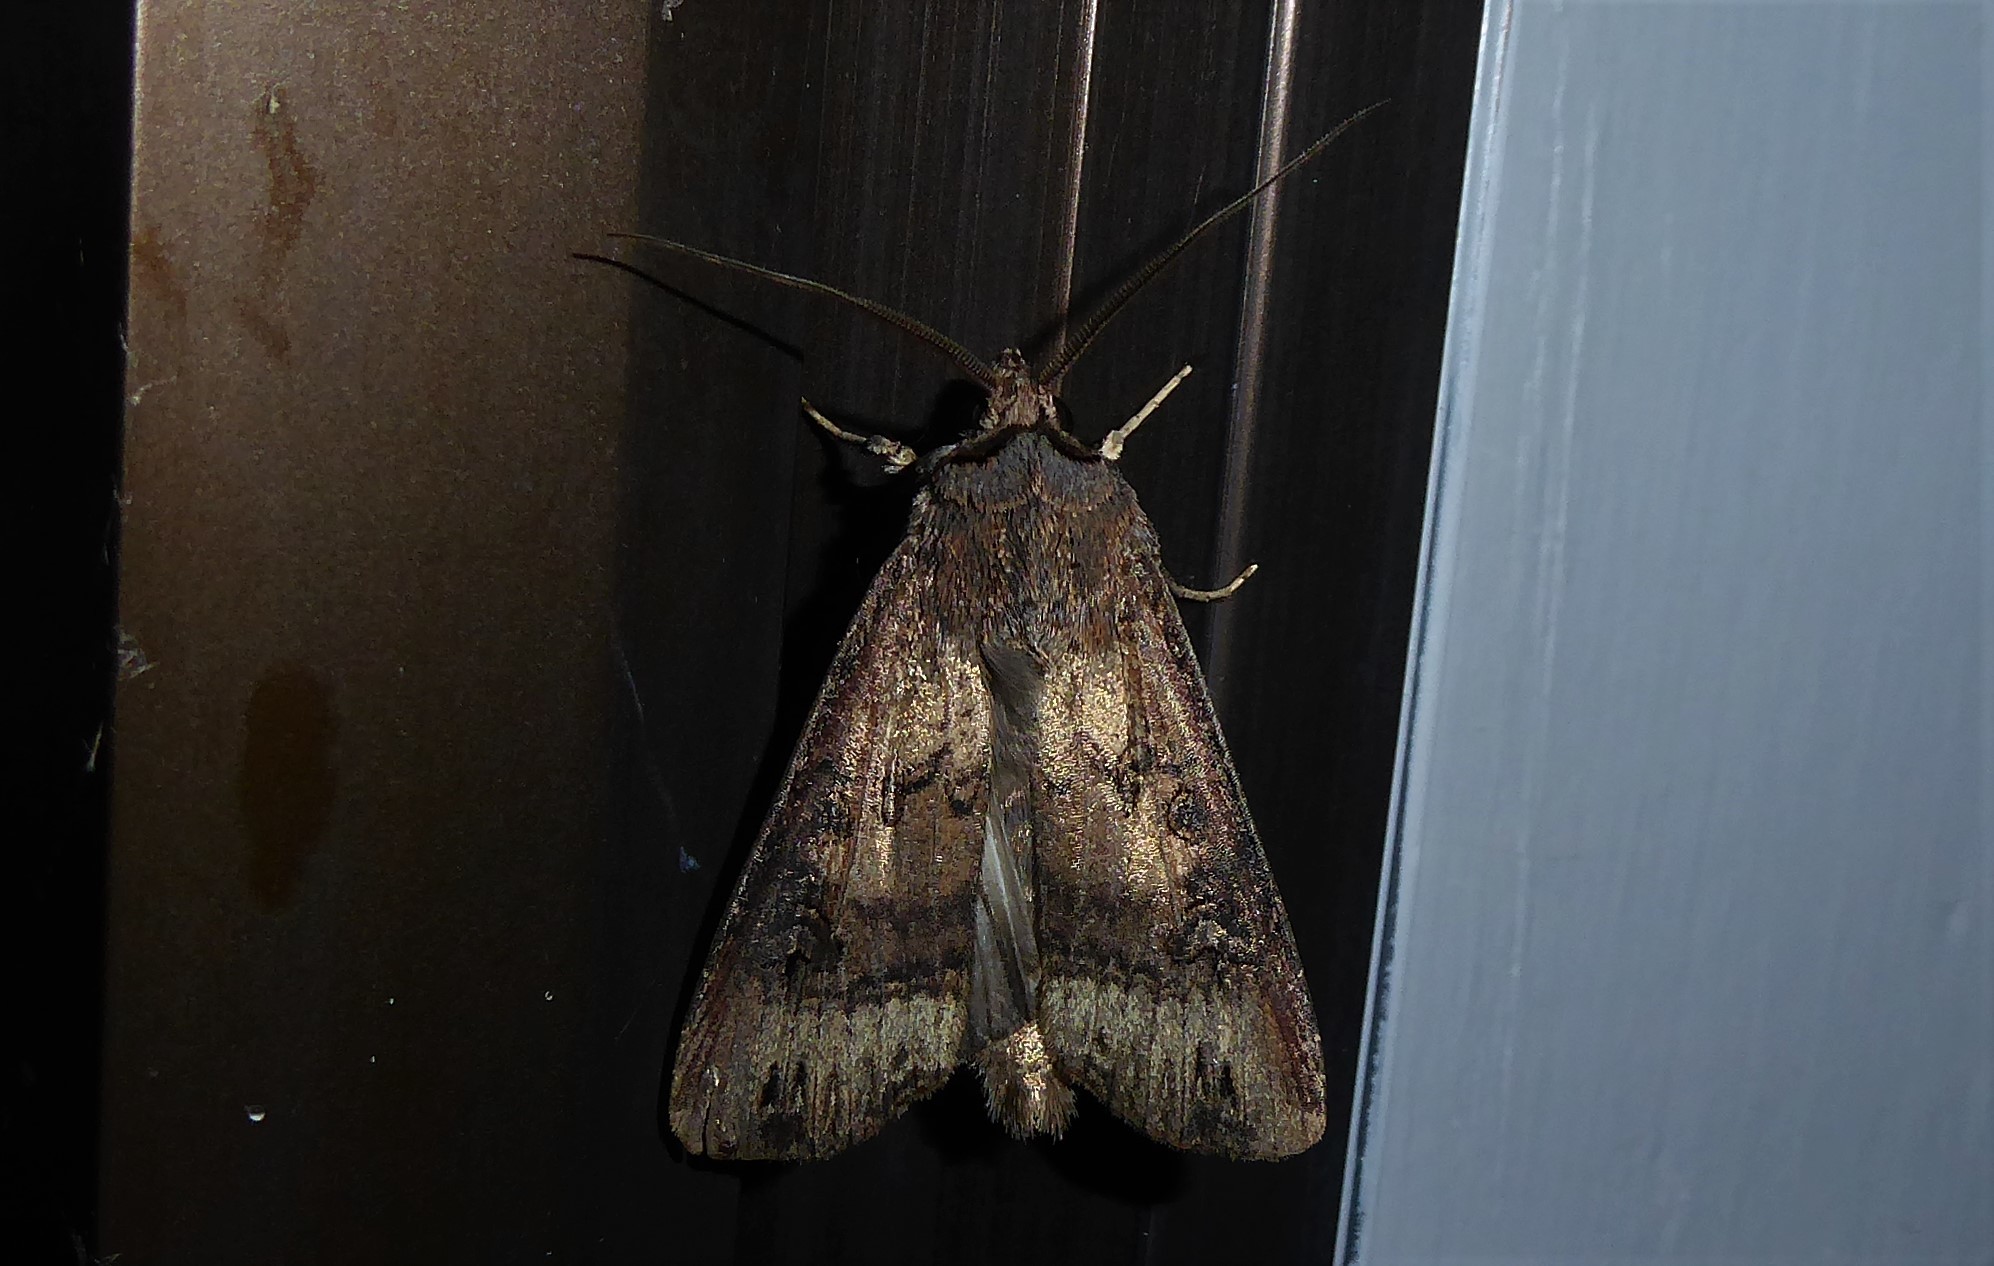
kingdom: Animalia
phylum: Arthropoda
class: Insecta
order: Lepidoptera
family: Noctuidae
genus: Agrotis
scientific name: Agrotis ipsilon
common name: Dark sword-grass
